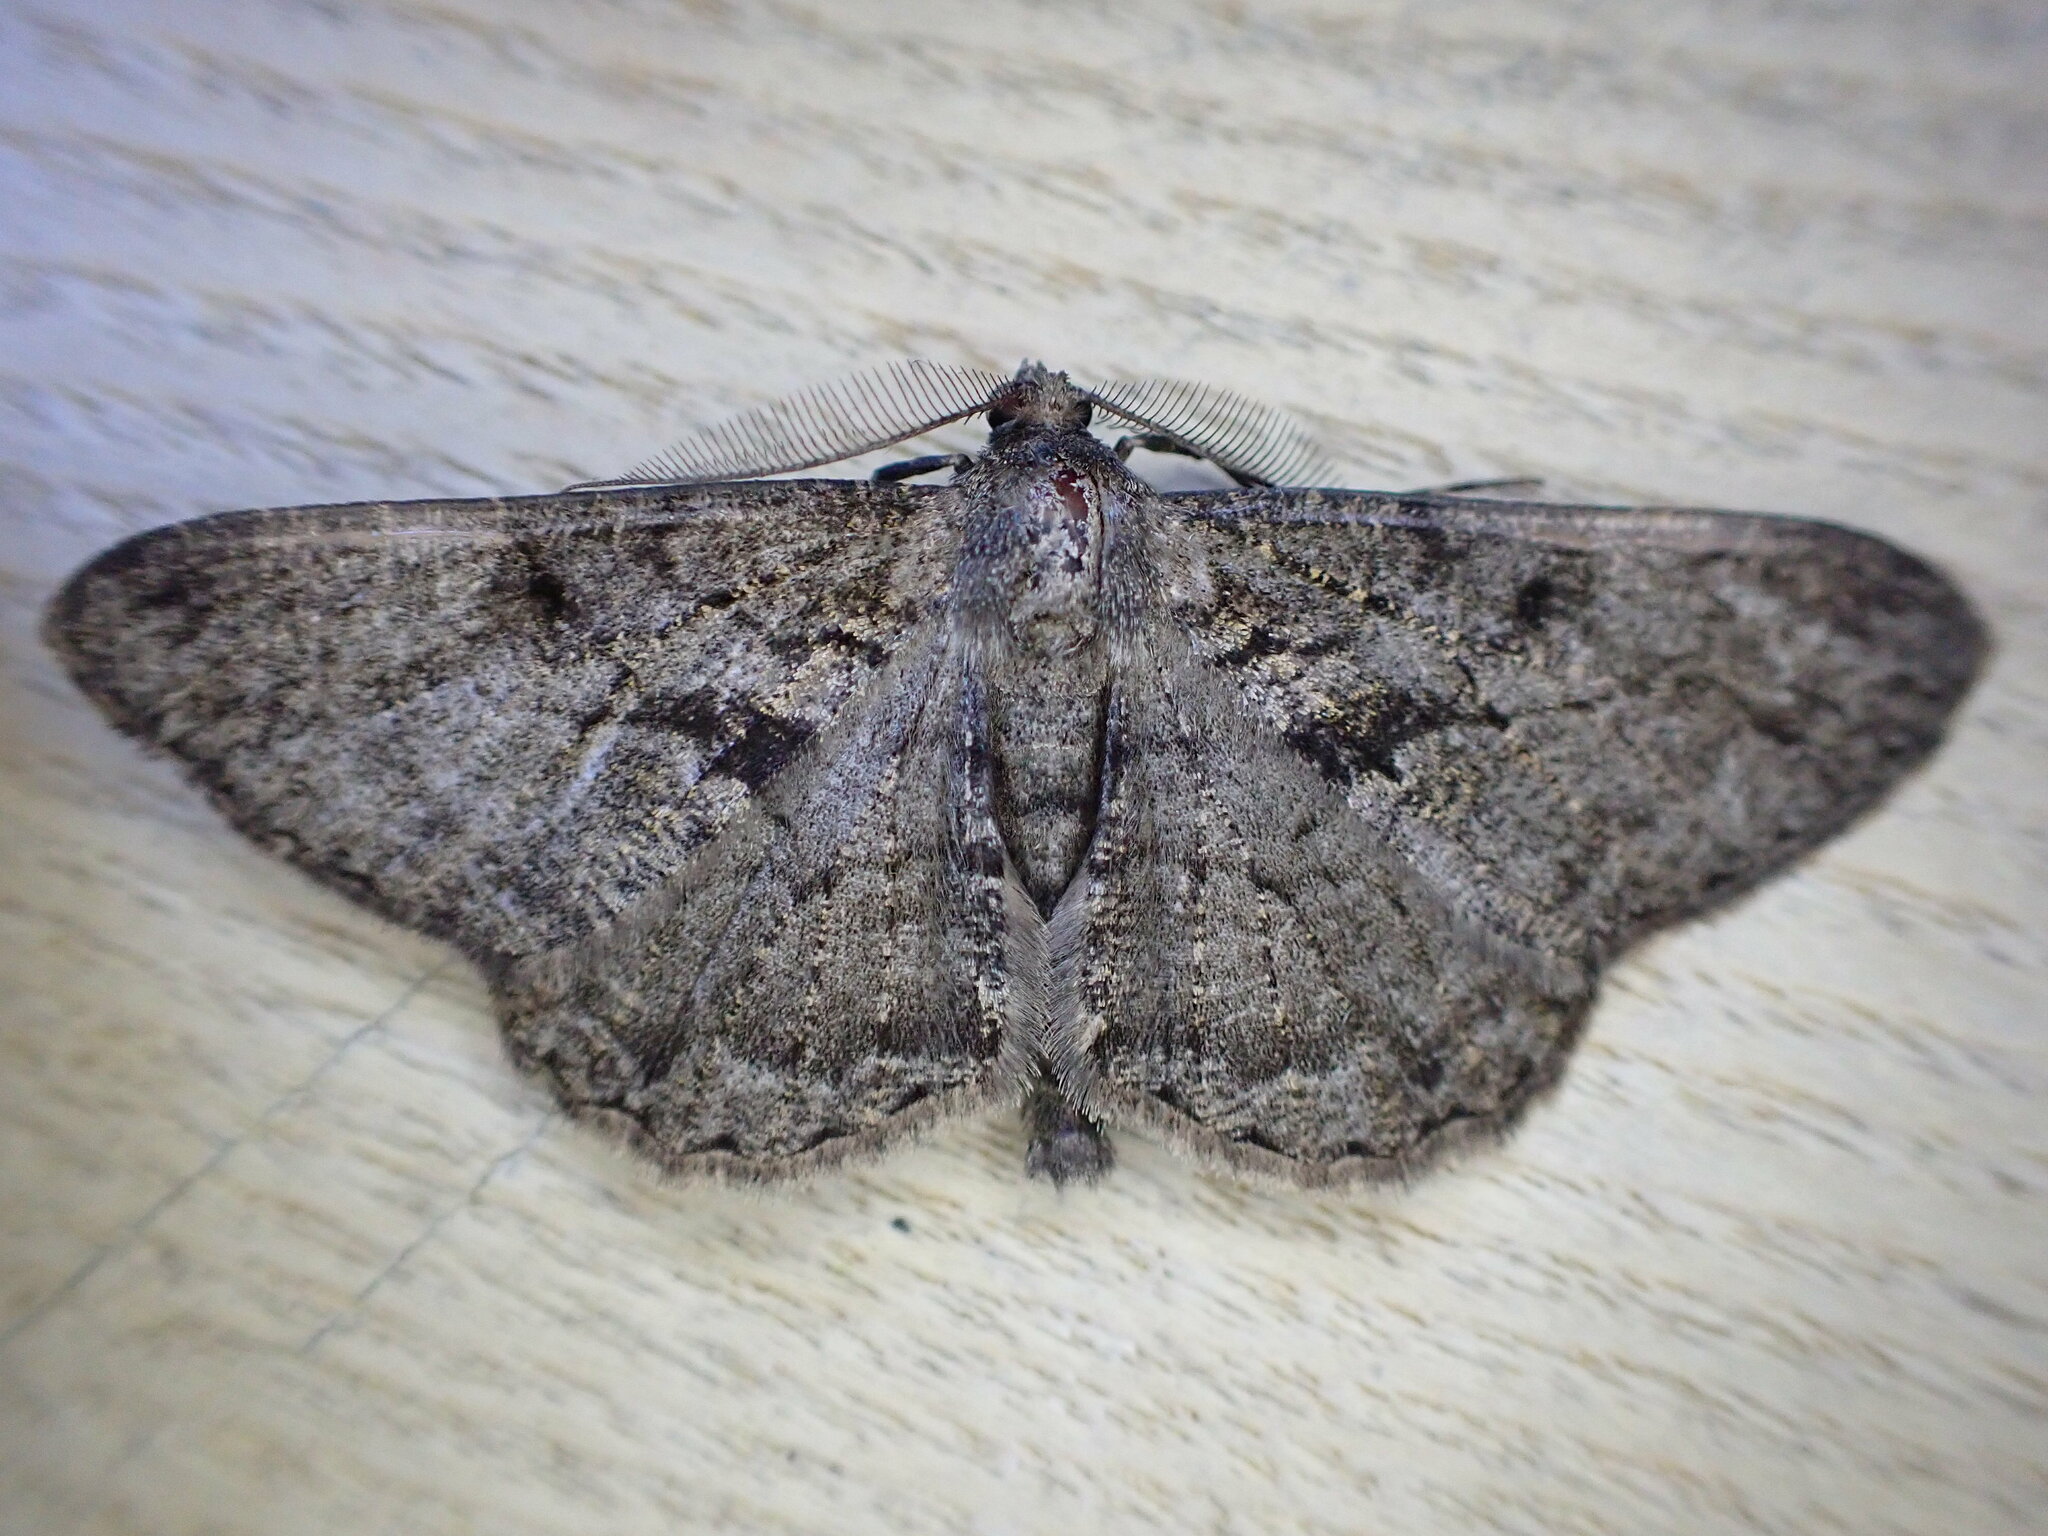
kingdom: Animalia
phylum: Arthropoda
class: Insecta
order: Lepidoptera
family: Geometridae
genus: Peribatodes
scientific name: Peribatodes rhomboidaria
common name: Willow beauty
